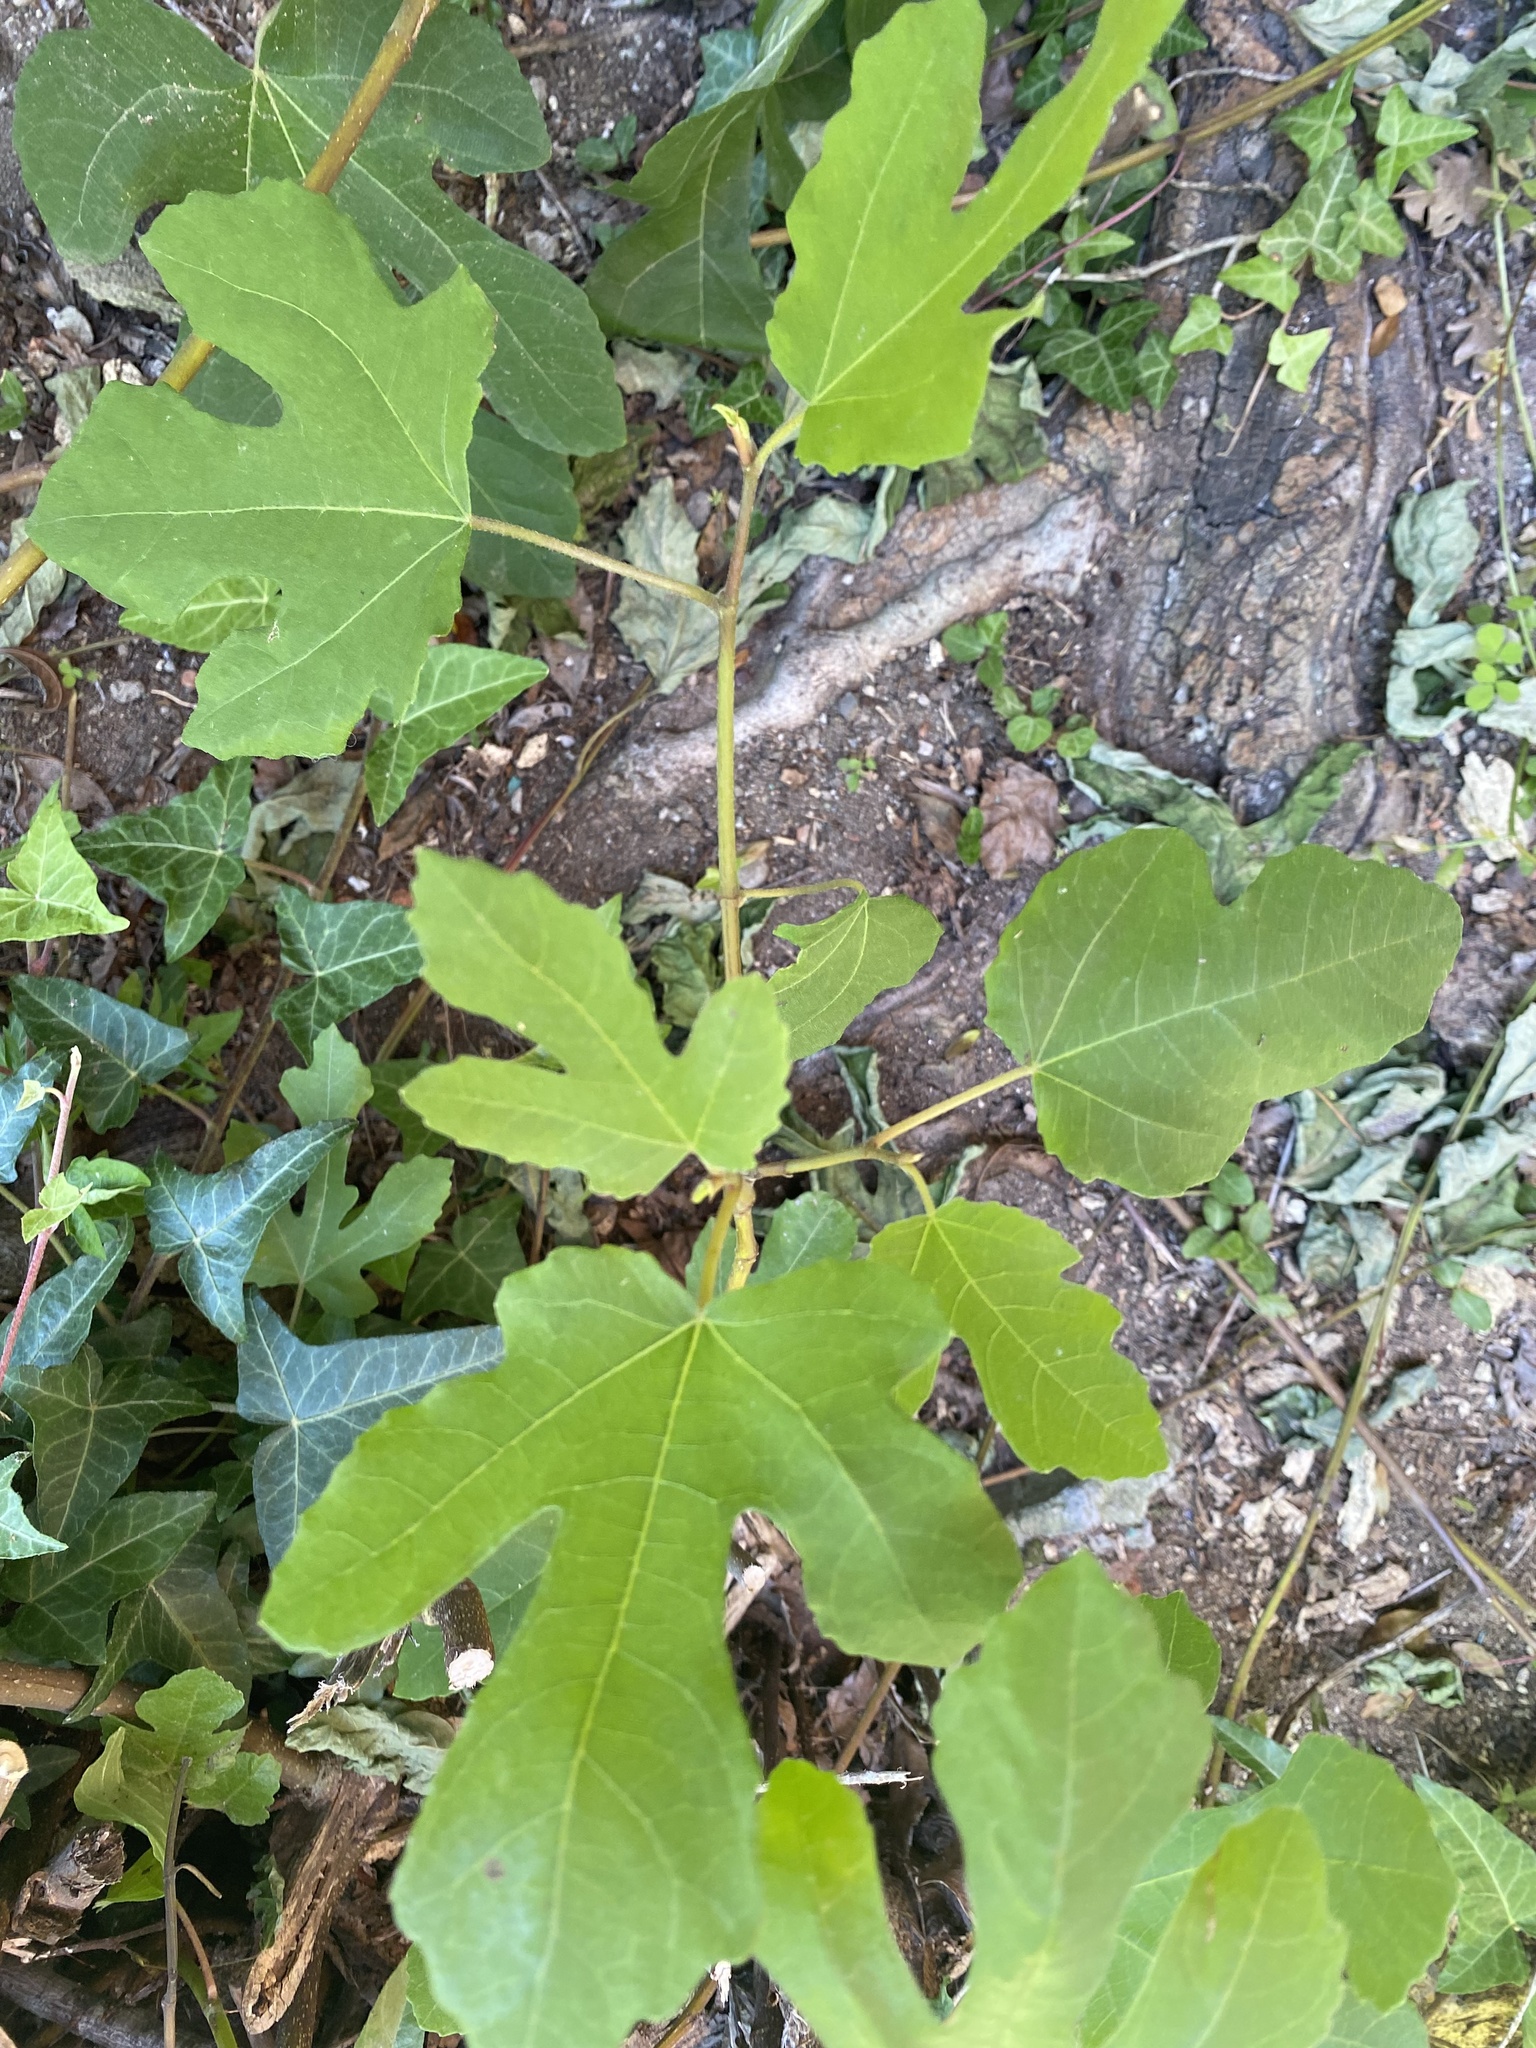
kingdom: Plantae
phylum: Tracheophyta
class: Magnoliopsida
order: Rosales
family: Moraceae
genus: Ficus
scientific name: Ficus carica
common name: Fig
